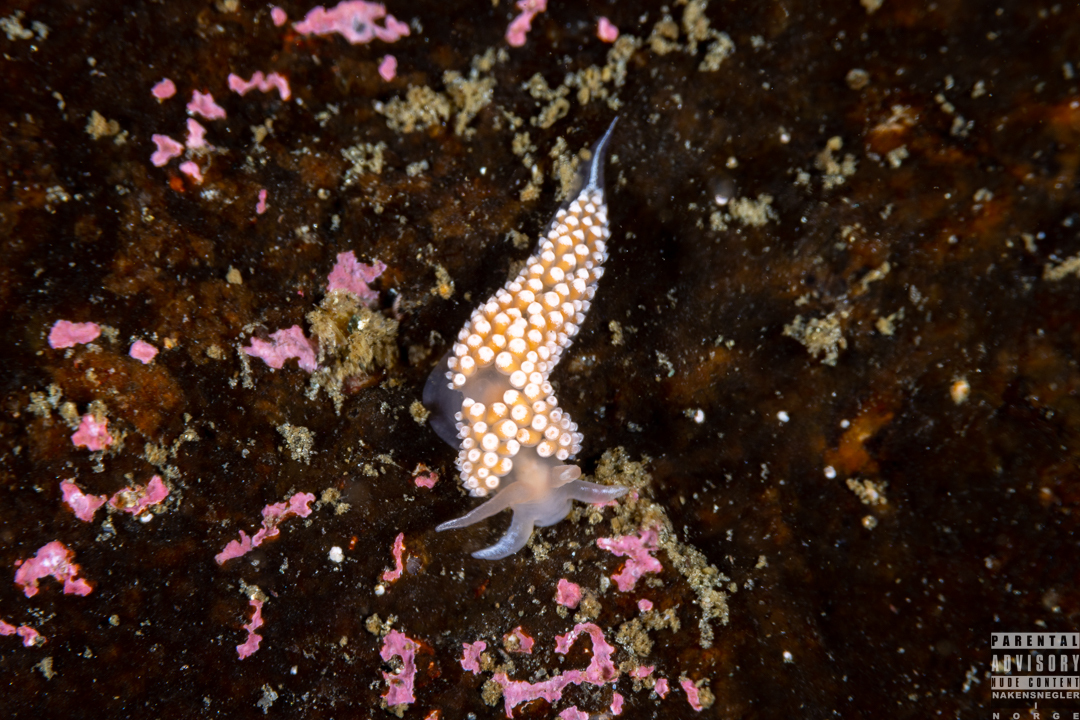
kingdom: Animalia
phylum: Mollusca
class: Gastropoda
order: Nudibranchia
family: Coryphellidae
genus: Coryphella
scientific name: Coryphella verrucosa
